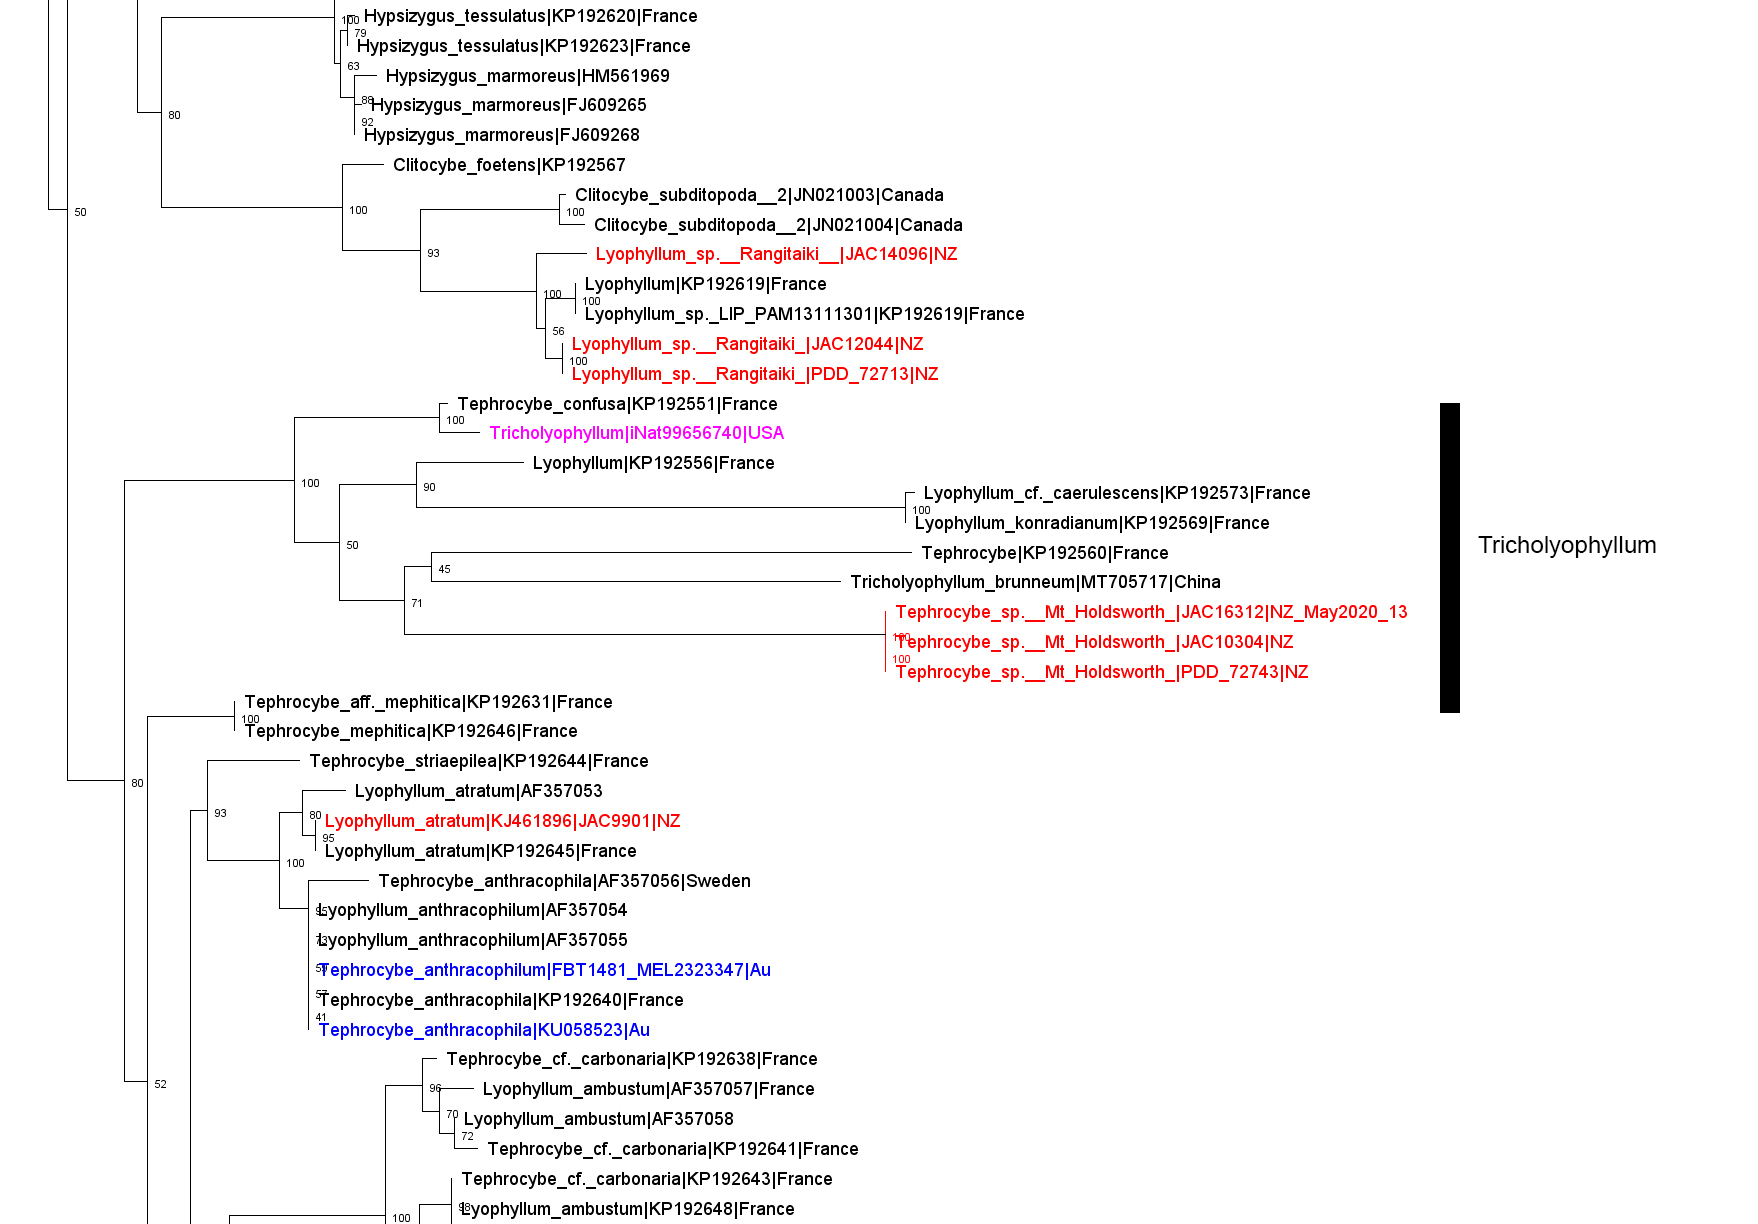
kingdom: Fungi
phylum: Basidiomycota
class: Agaricomycetes
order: Agaricales
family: Lyophyllaceae
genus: Tricholyophyllum
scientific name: Tricholyophyllum
